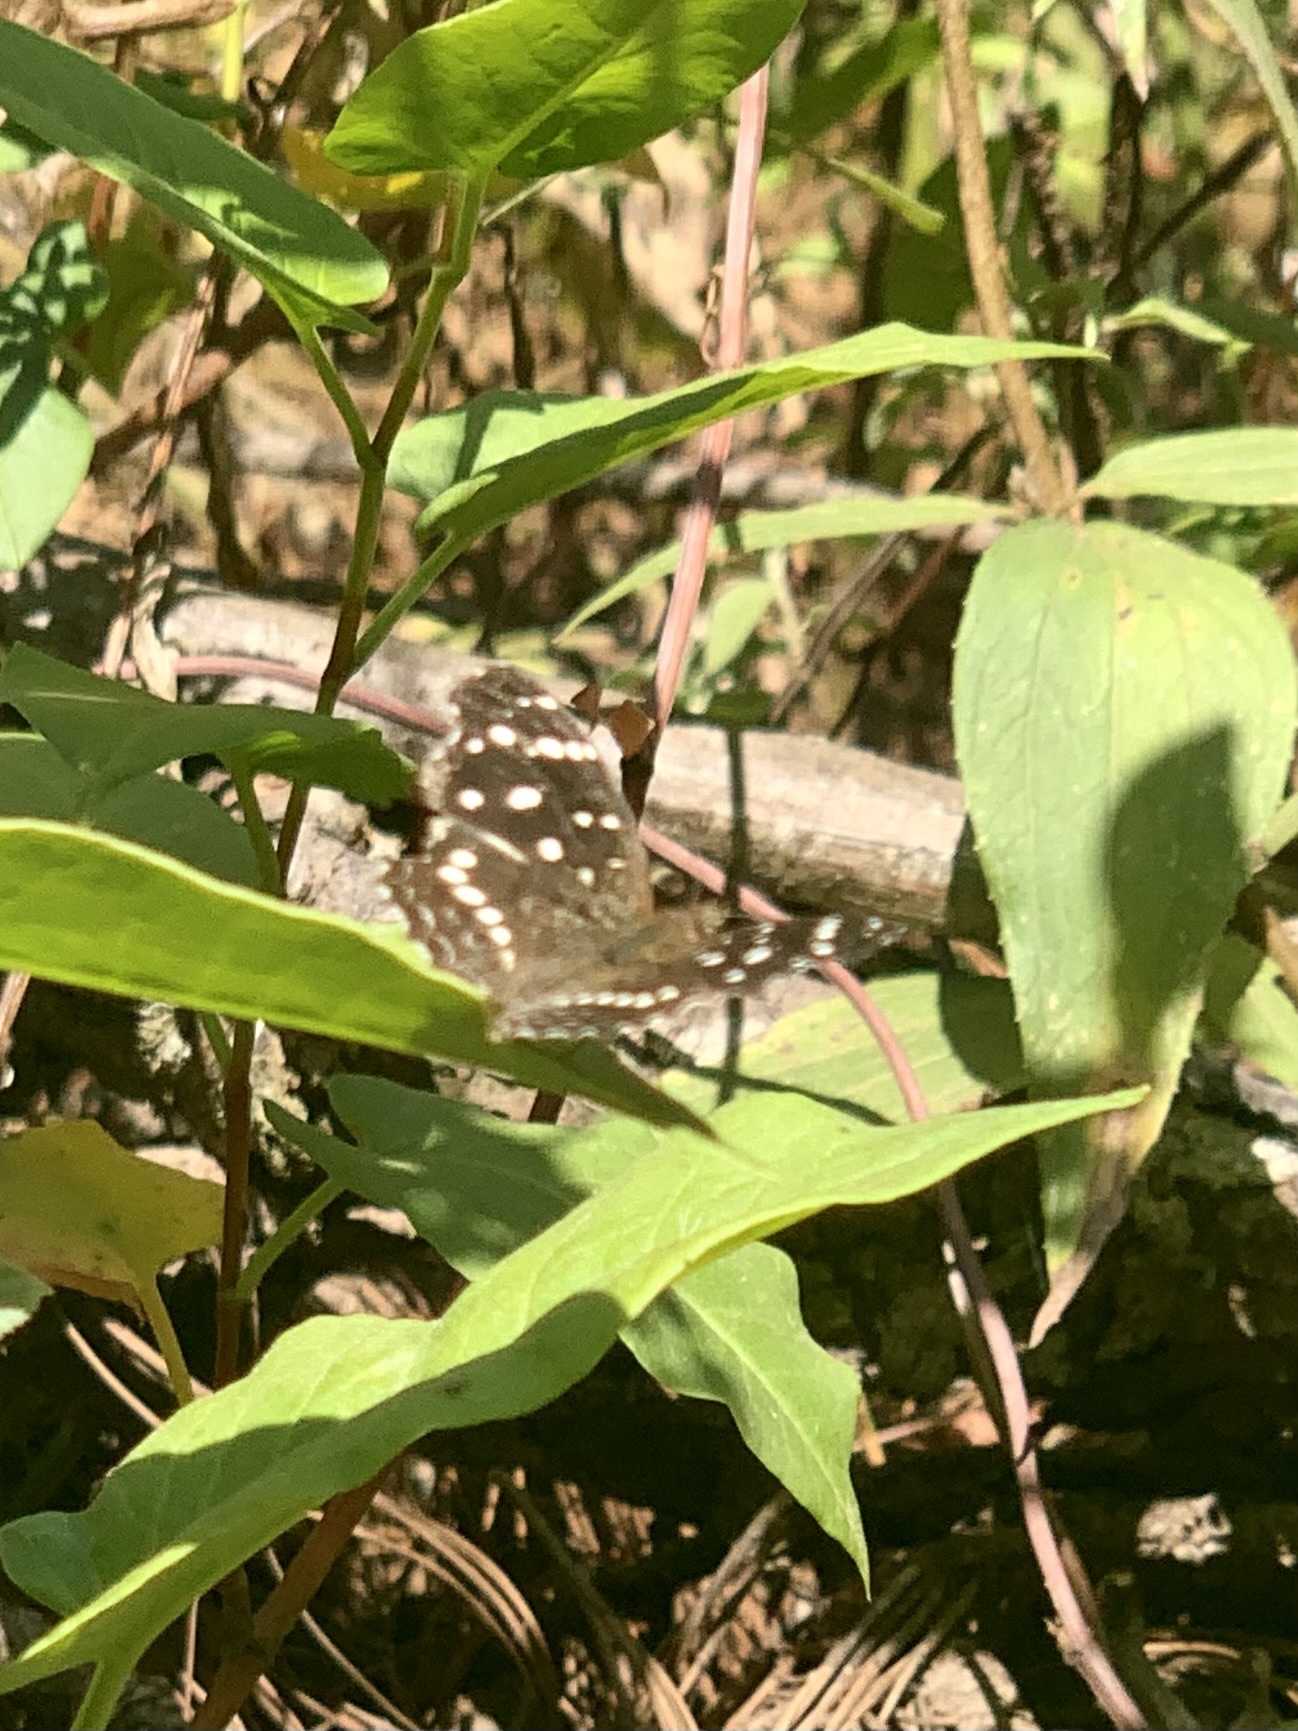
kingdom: Animalia
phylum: Arthropoda
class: Insecta
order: Lepidoptera
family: Nymphalidae
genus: Anthanassa
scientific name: Anthanassa texana
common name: Texan crescent
